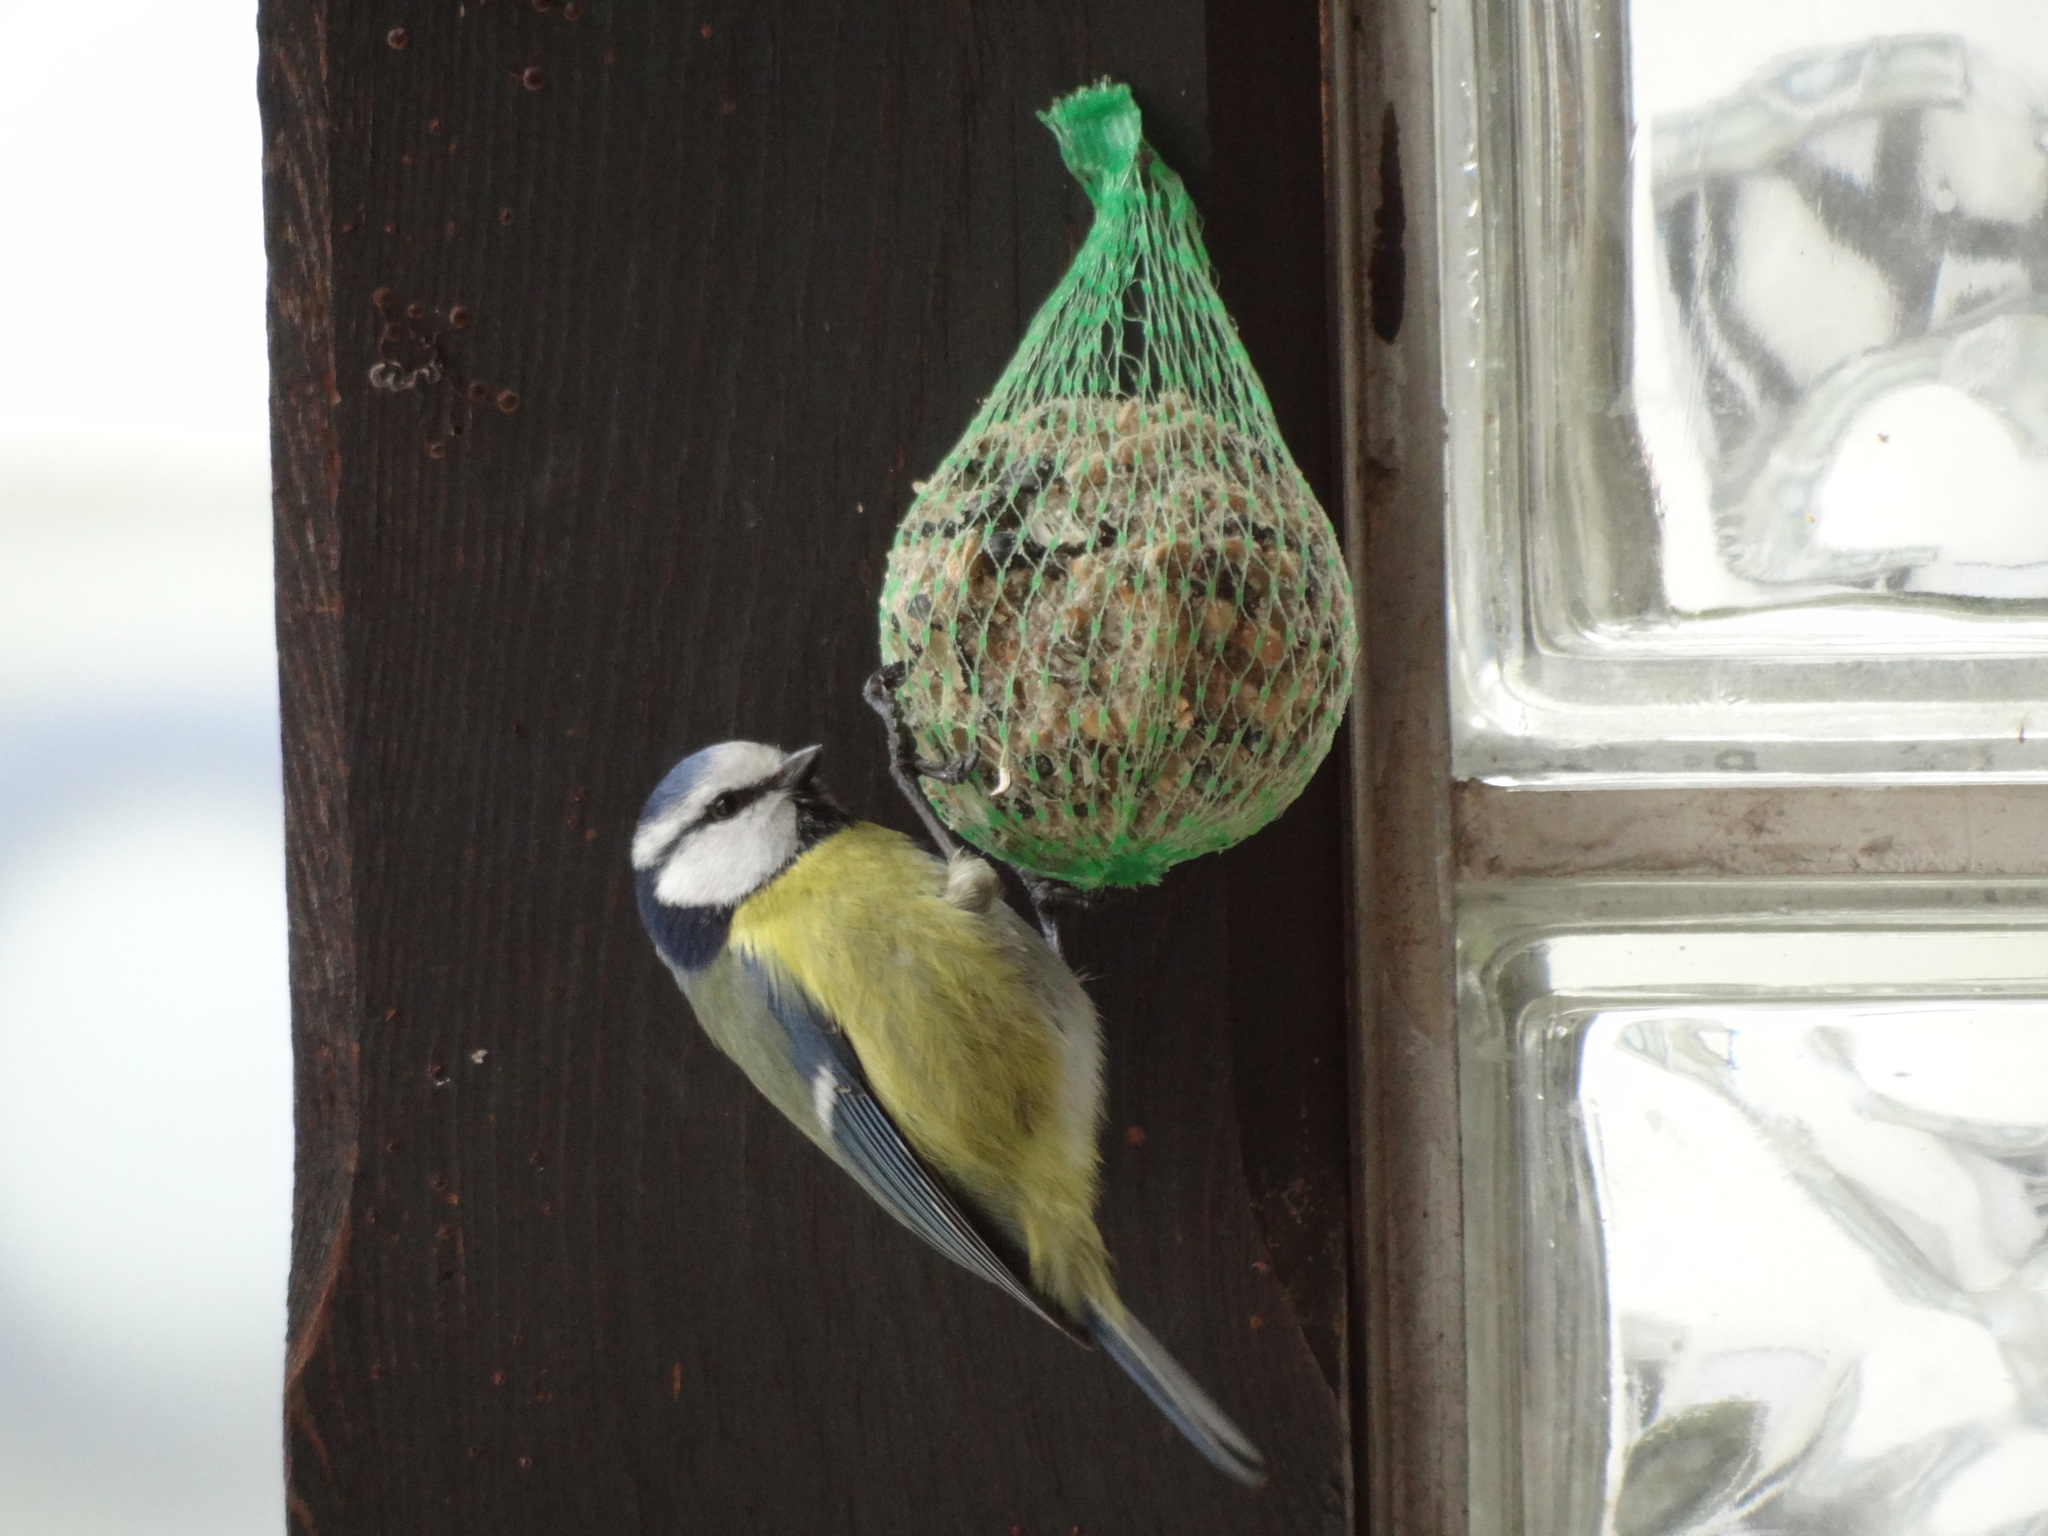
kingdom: Animalia
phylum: Chordata
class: Aves
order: Passeriformes
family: Paridae
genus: Cyanistes
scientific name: Cyanistes caeruleus
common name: Eurasian blue tit
